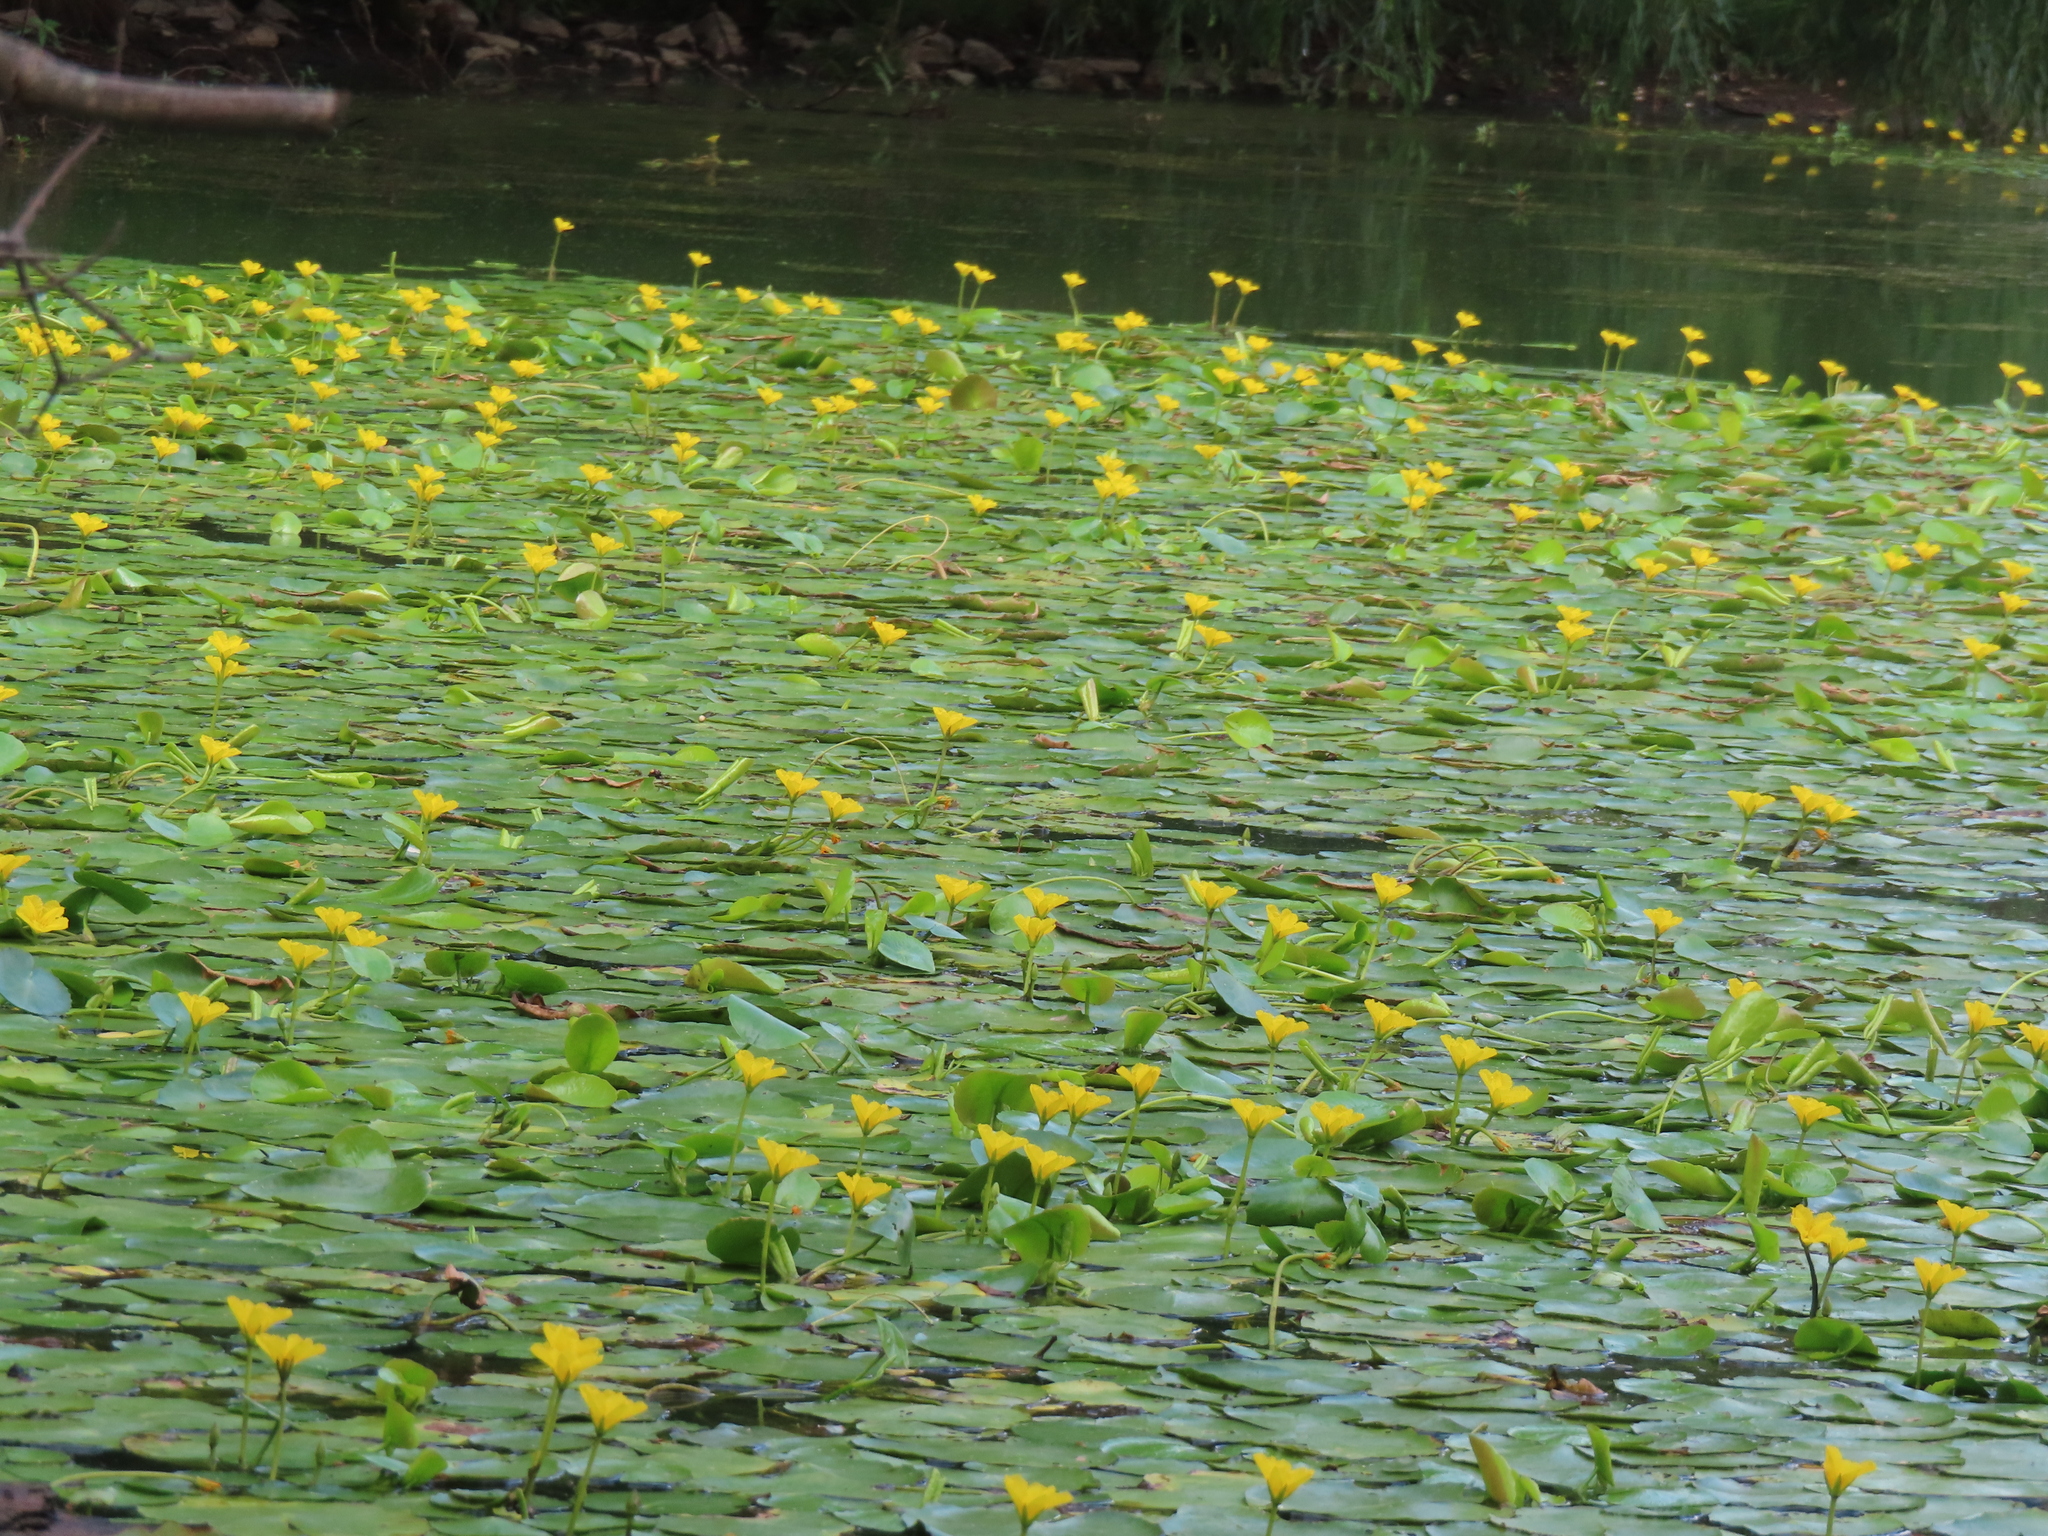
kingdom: Plantae
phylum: Tracheophyta
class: Magnoliopsida
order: Asterales
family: Menyanthaceae
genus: Nymphoides
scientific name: Nymphoides peltata
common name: Fringed water-lily
